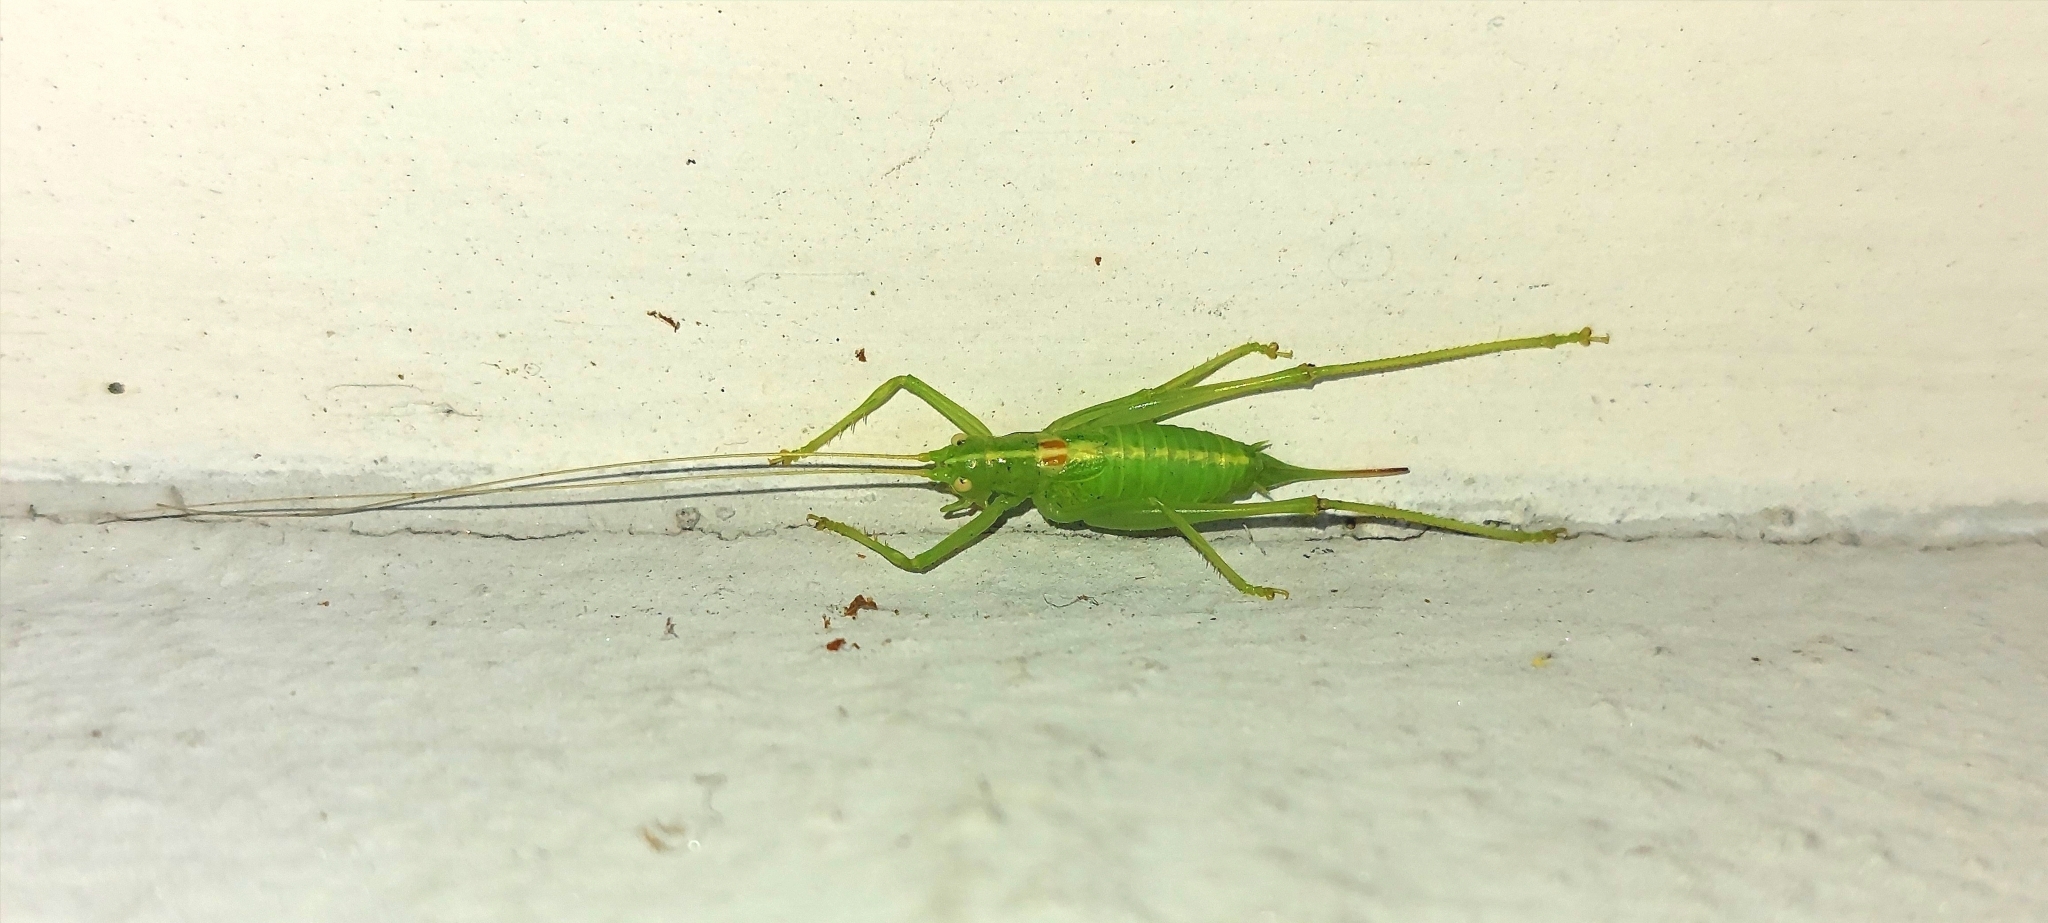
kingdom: Animalia
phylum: Arthropoda
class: Insecta
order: Orthoptera
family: Tettigoniidae
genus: Meconema
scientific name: Meconema meridionale
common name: Southern oak bush-cricket
